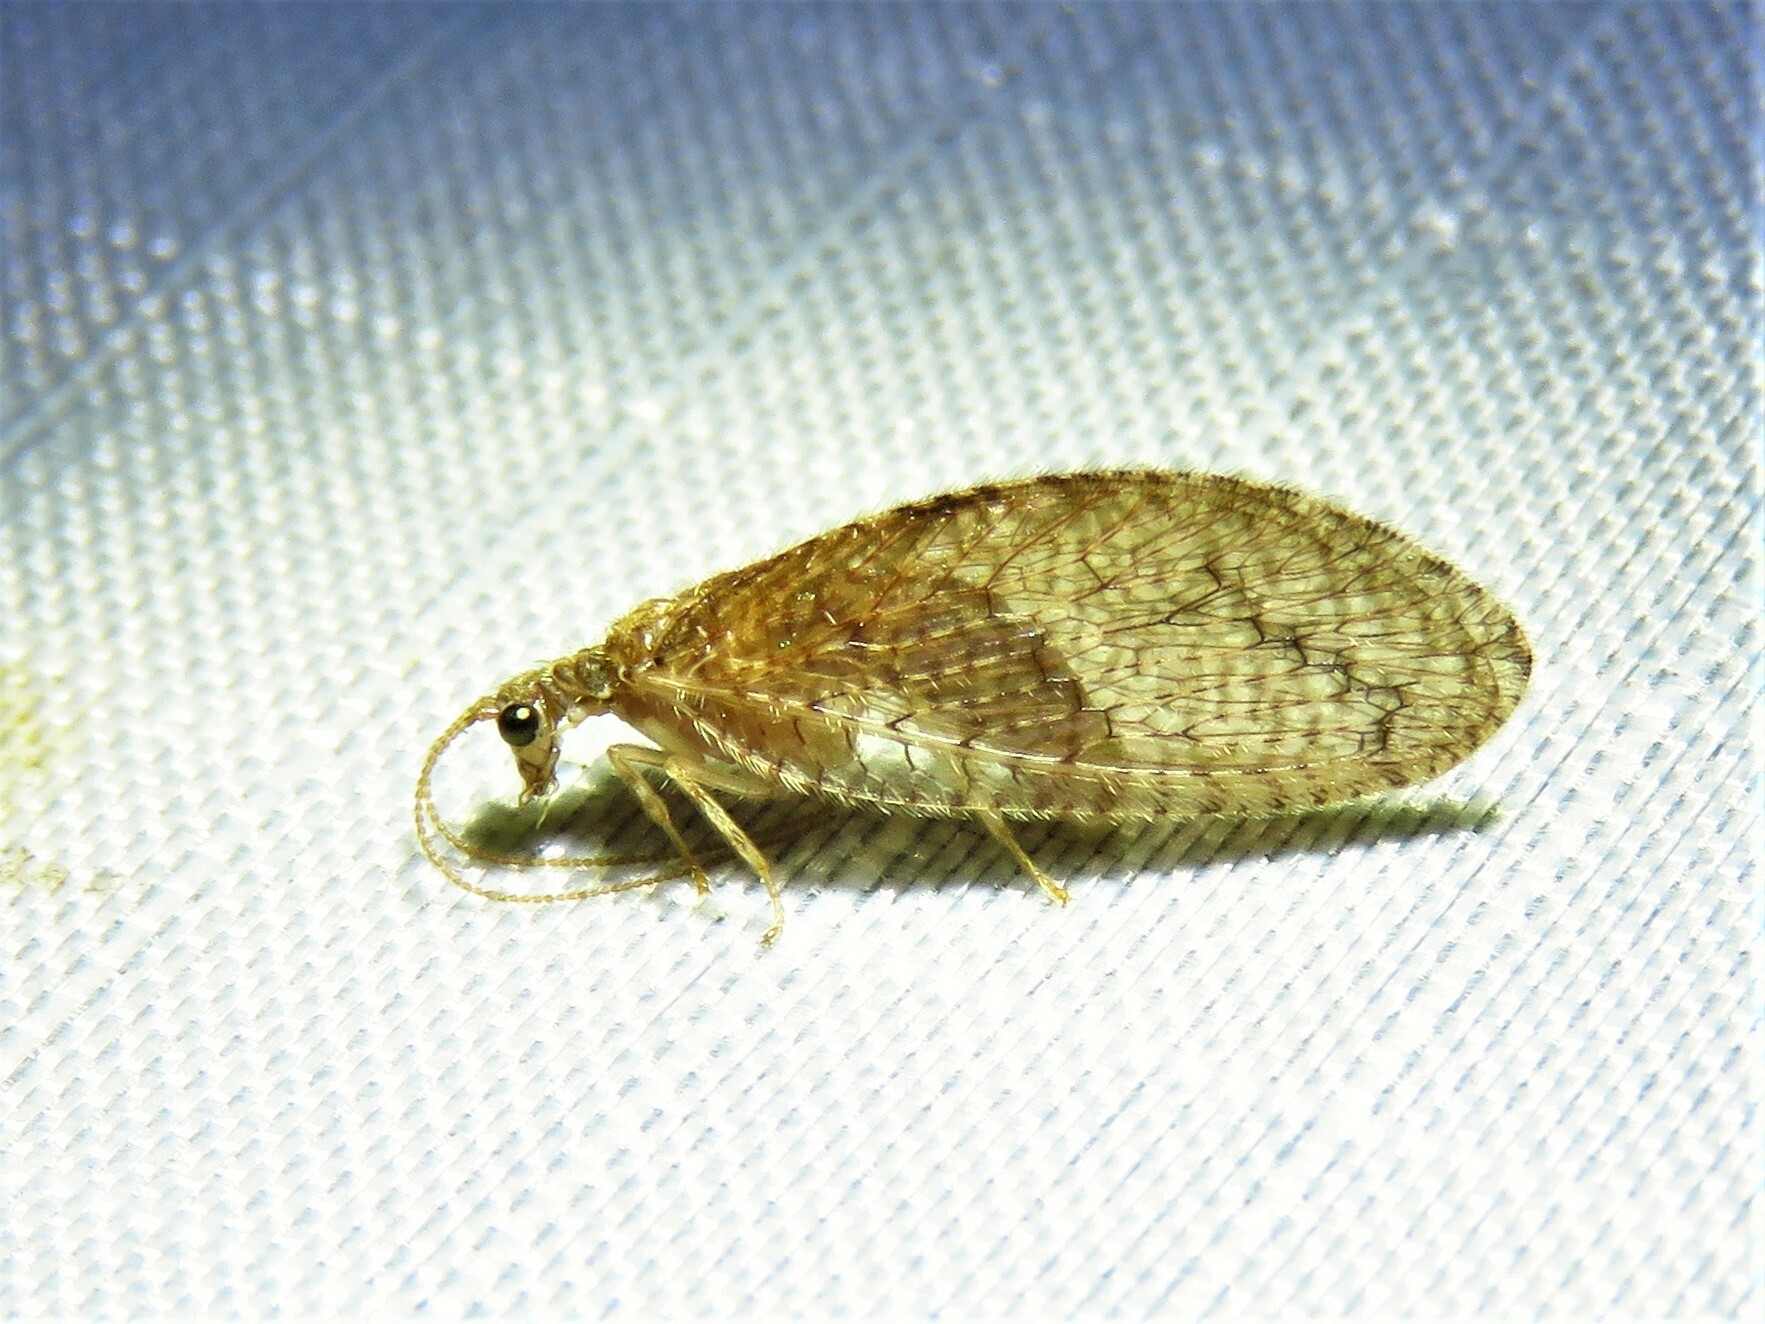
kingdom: Animalia
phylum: Arthropoda
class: Insecta
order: Neuroptera
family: Hemerobiidae
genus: Micromus
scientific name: Micromus posticus
